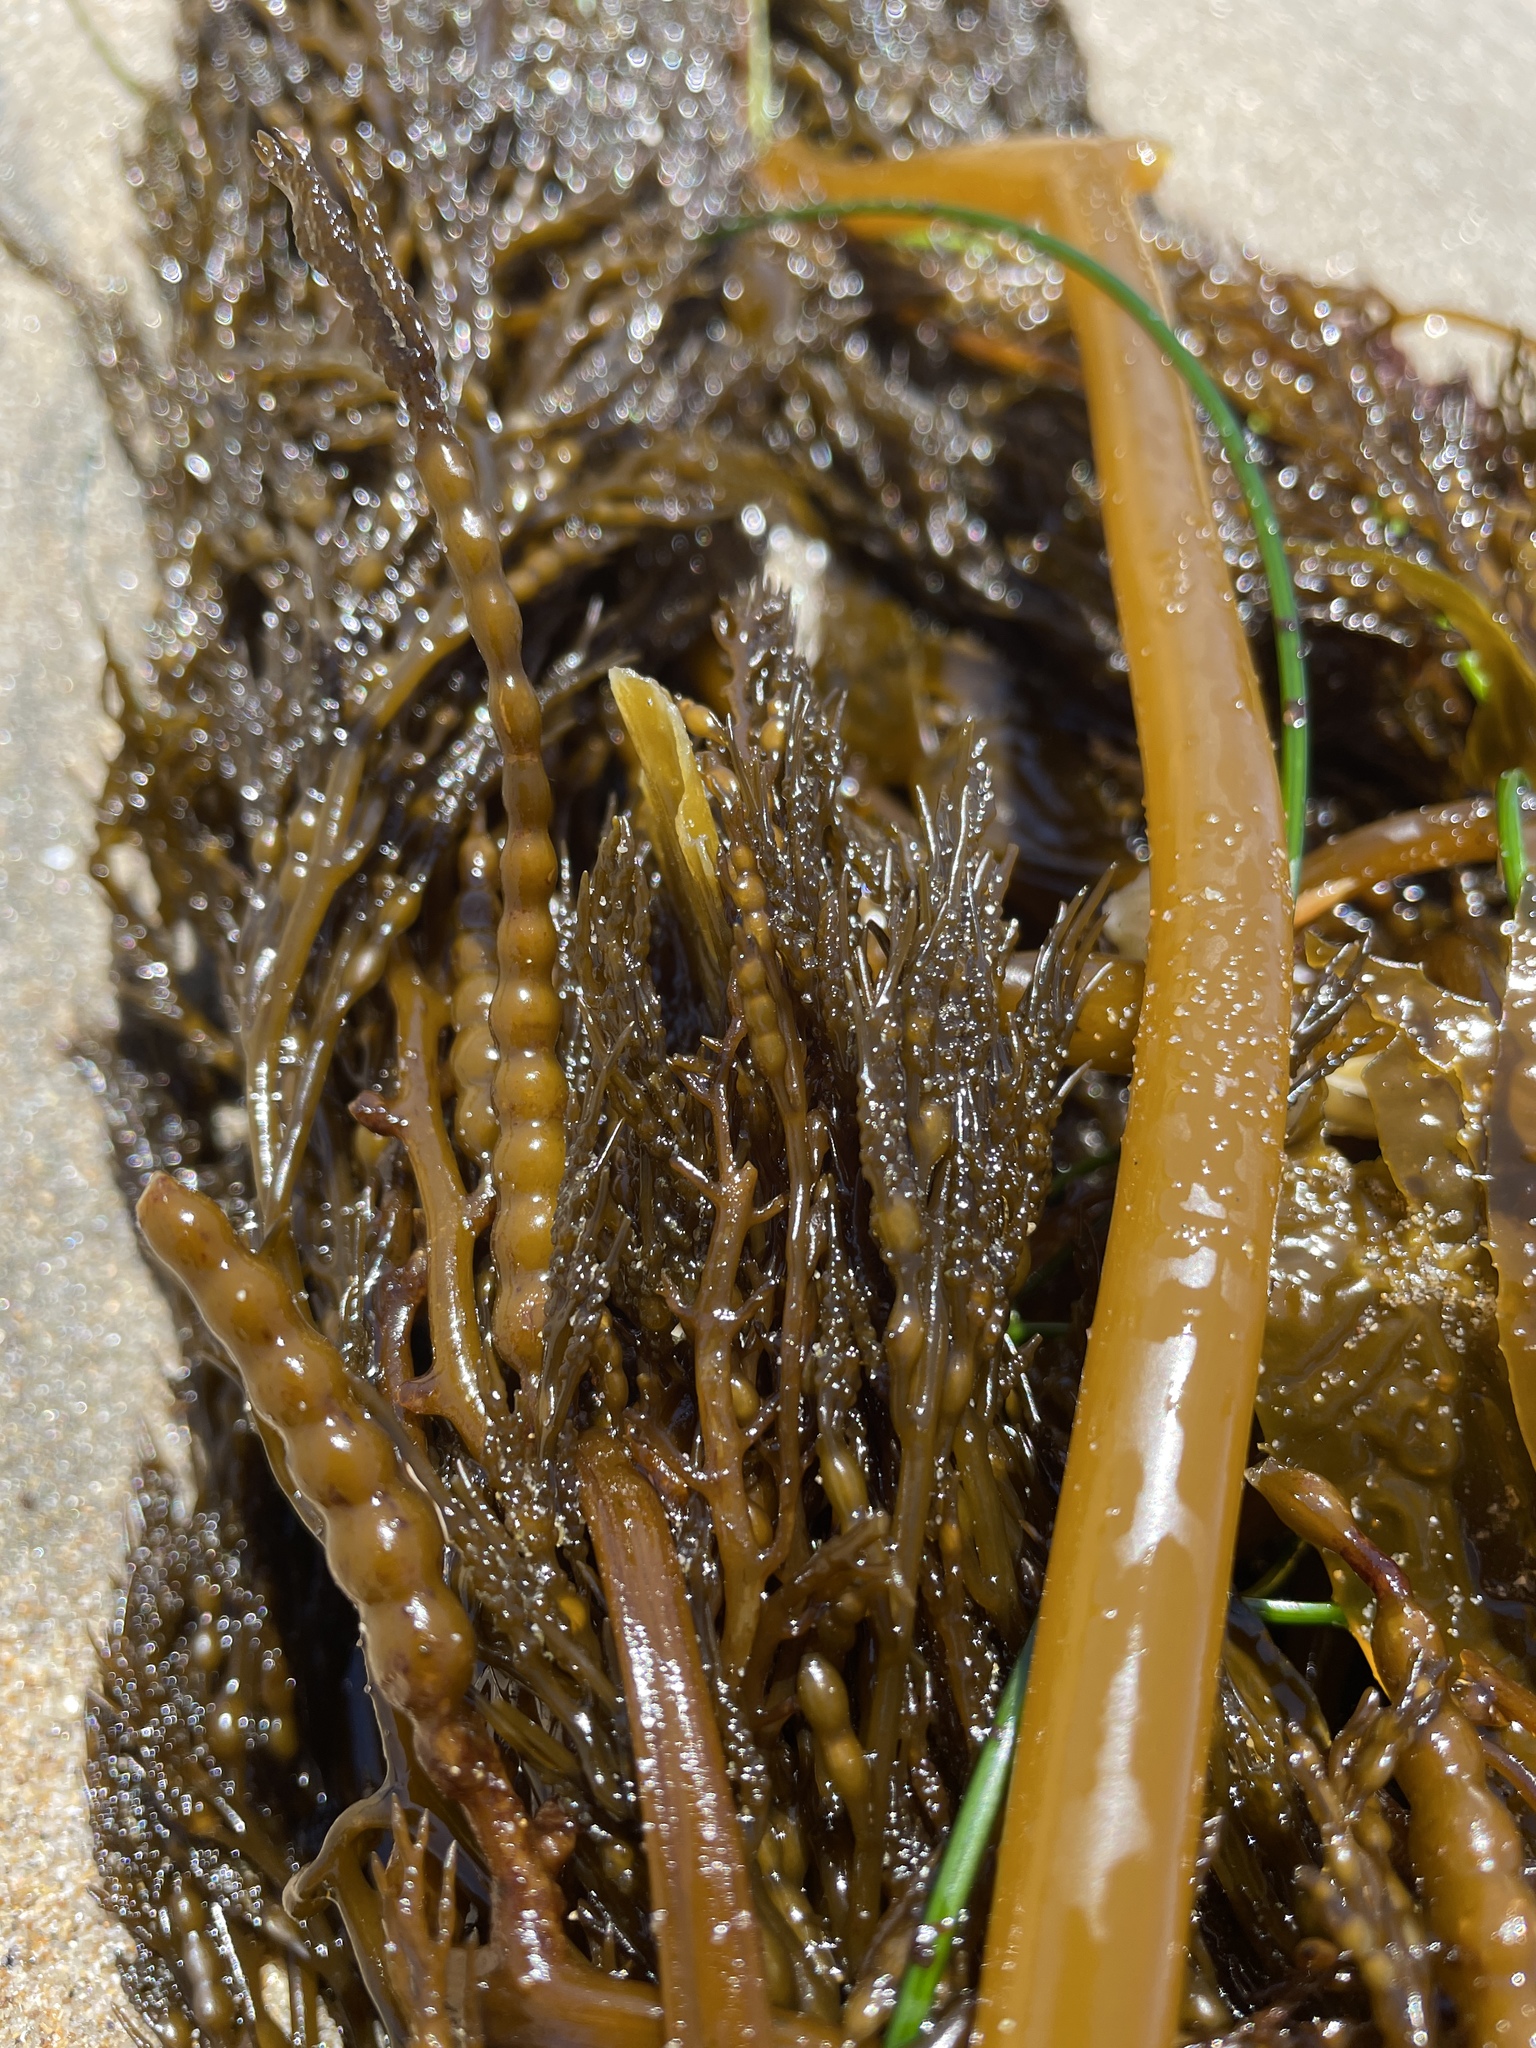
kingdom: Chromista
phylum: Ochrophyta
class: Phaeophyceae
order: Fucales
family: Sargassaceae
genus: Stephanocystis
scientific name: Stephanocystis
